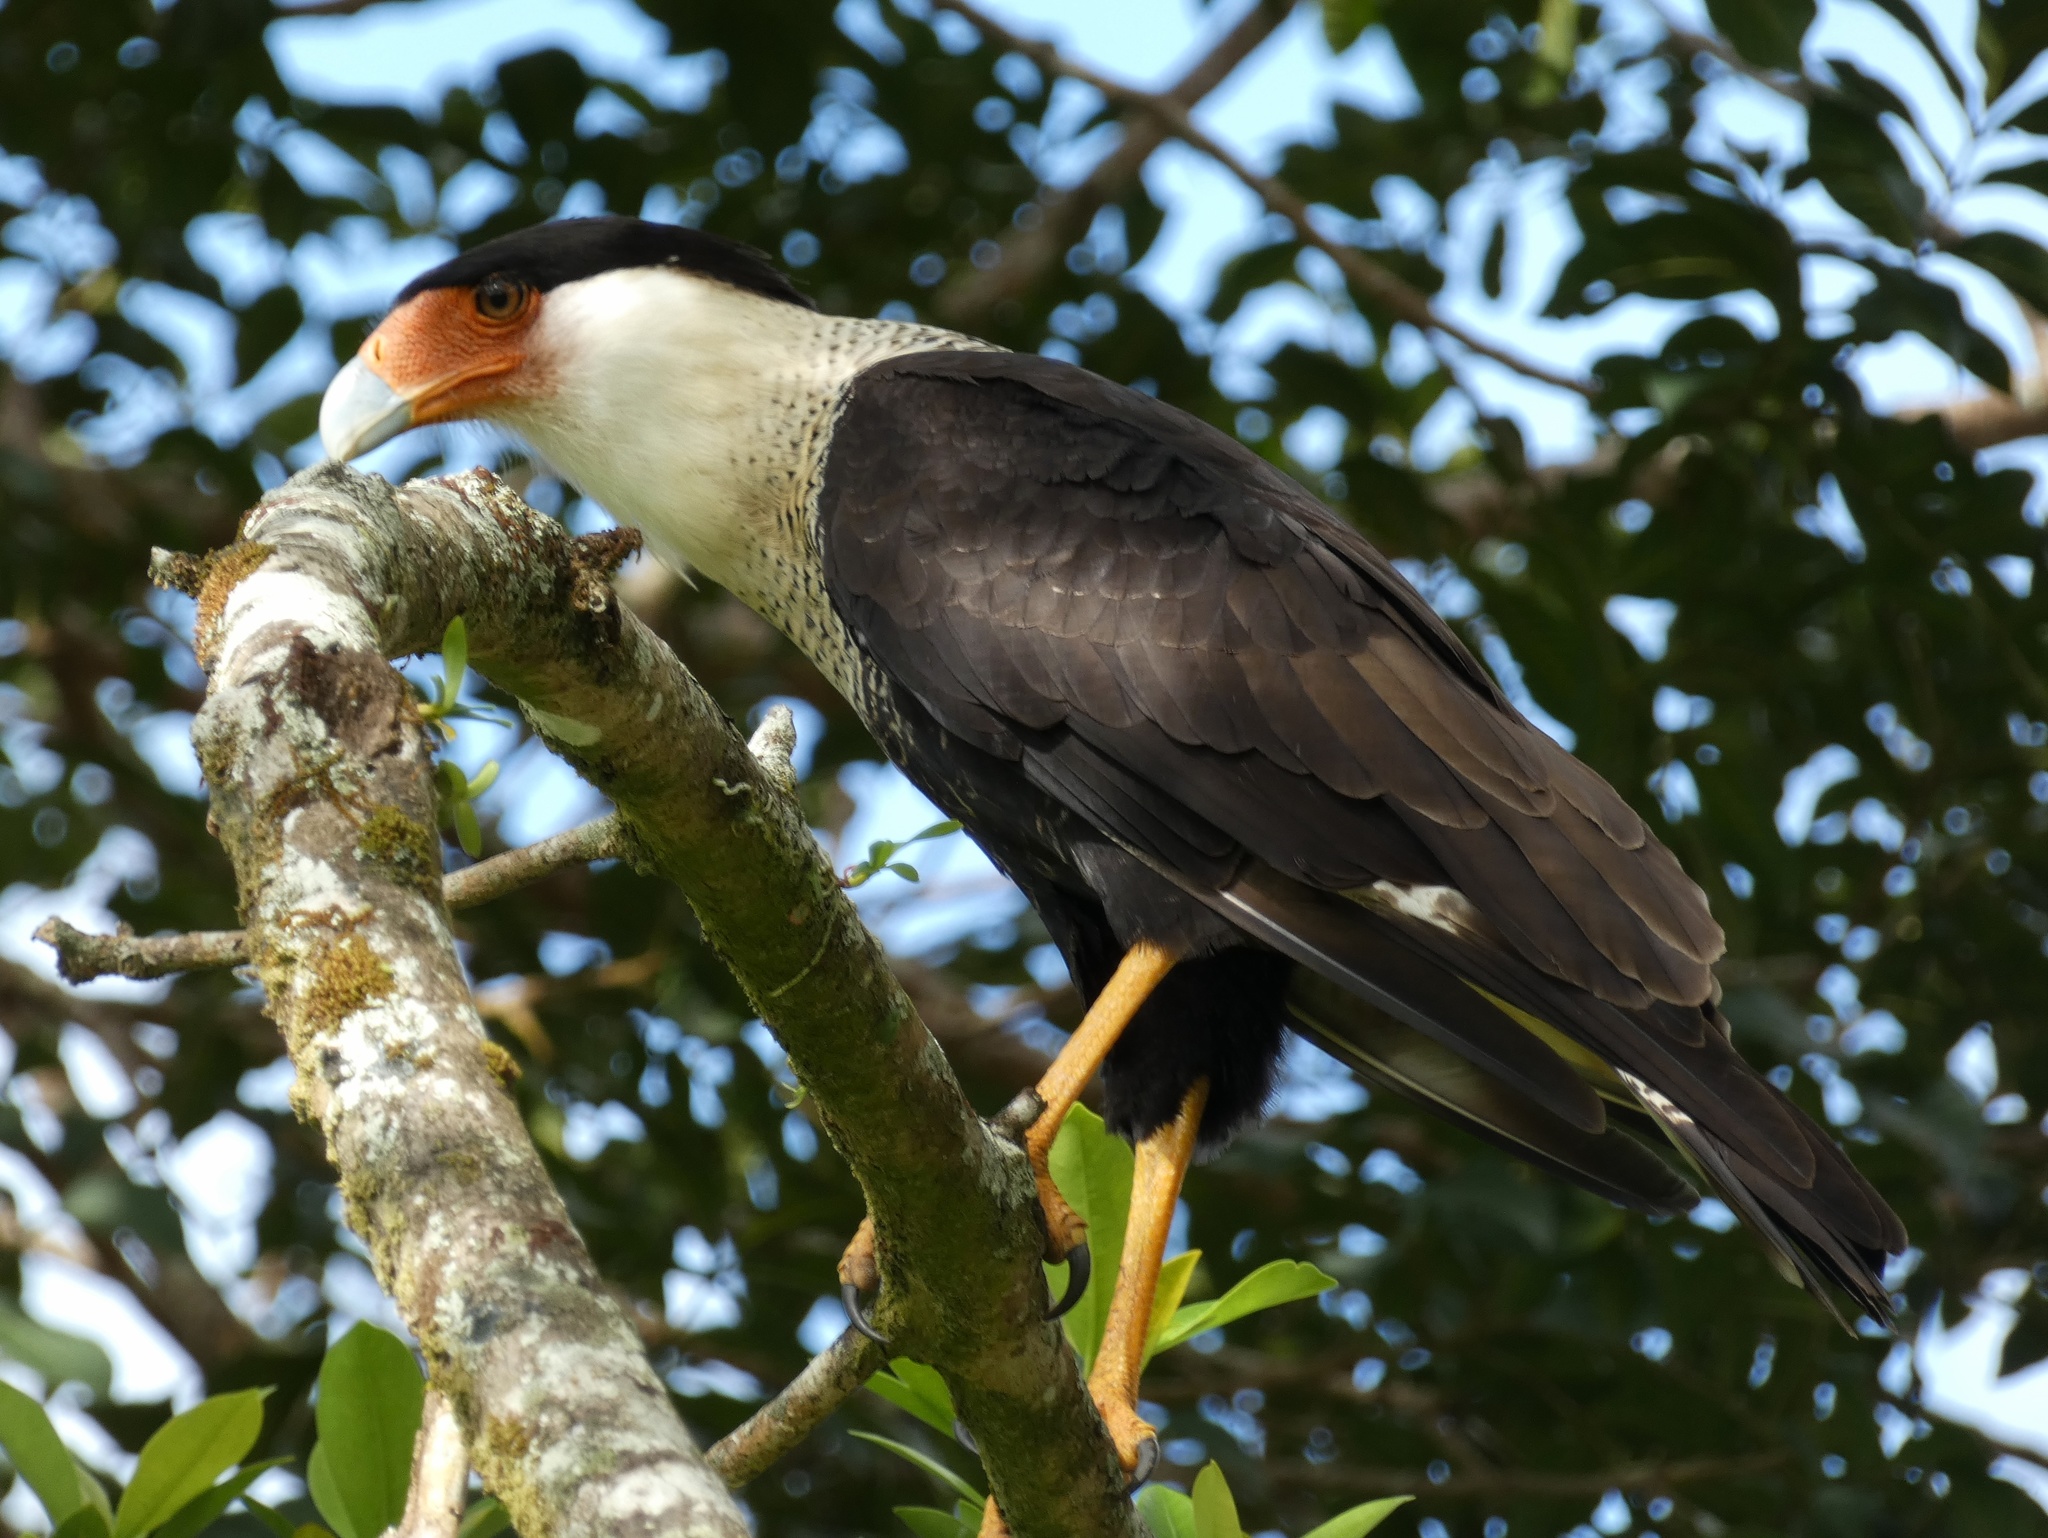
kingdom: Animalia
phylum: Chordata
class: Aves
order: Falconiformes
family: Falconidae
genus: Caracara
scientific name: Caracara plancus
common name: Southern caracara
